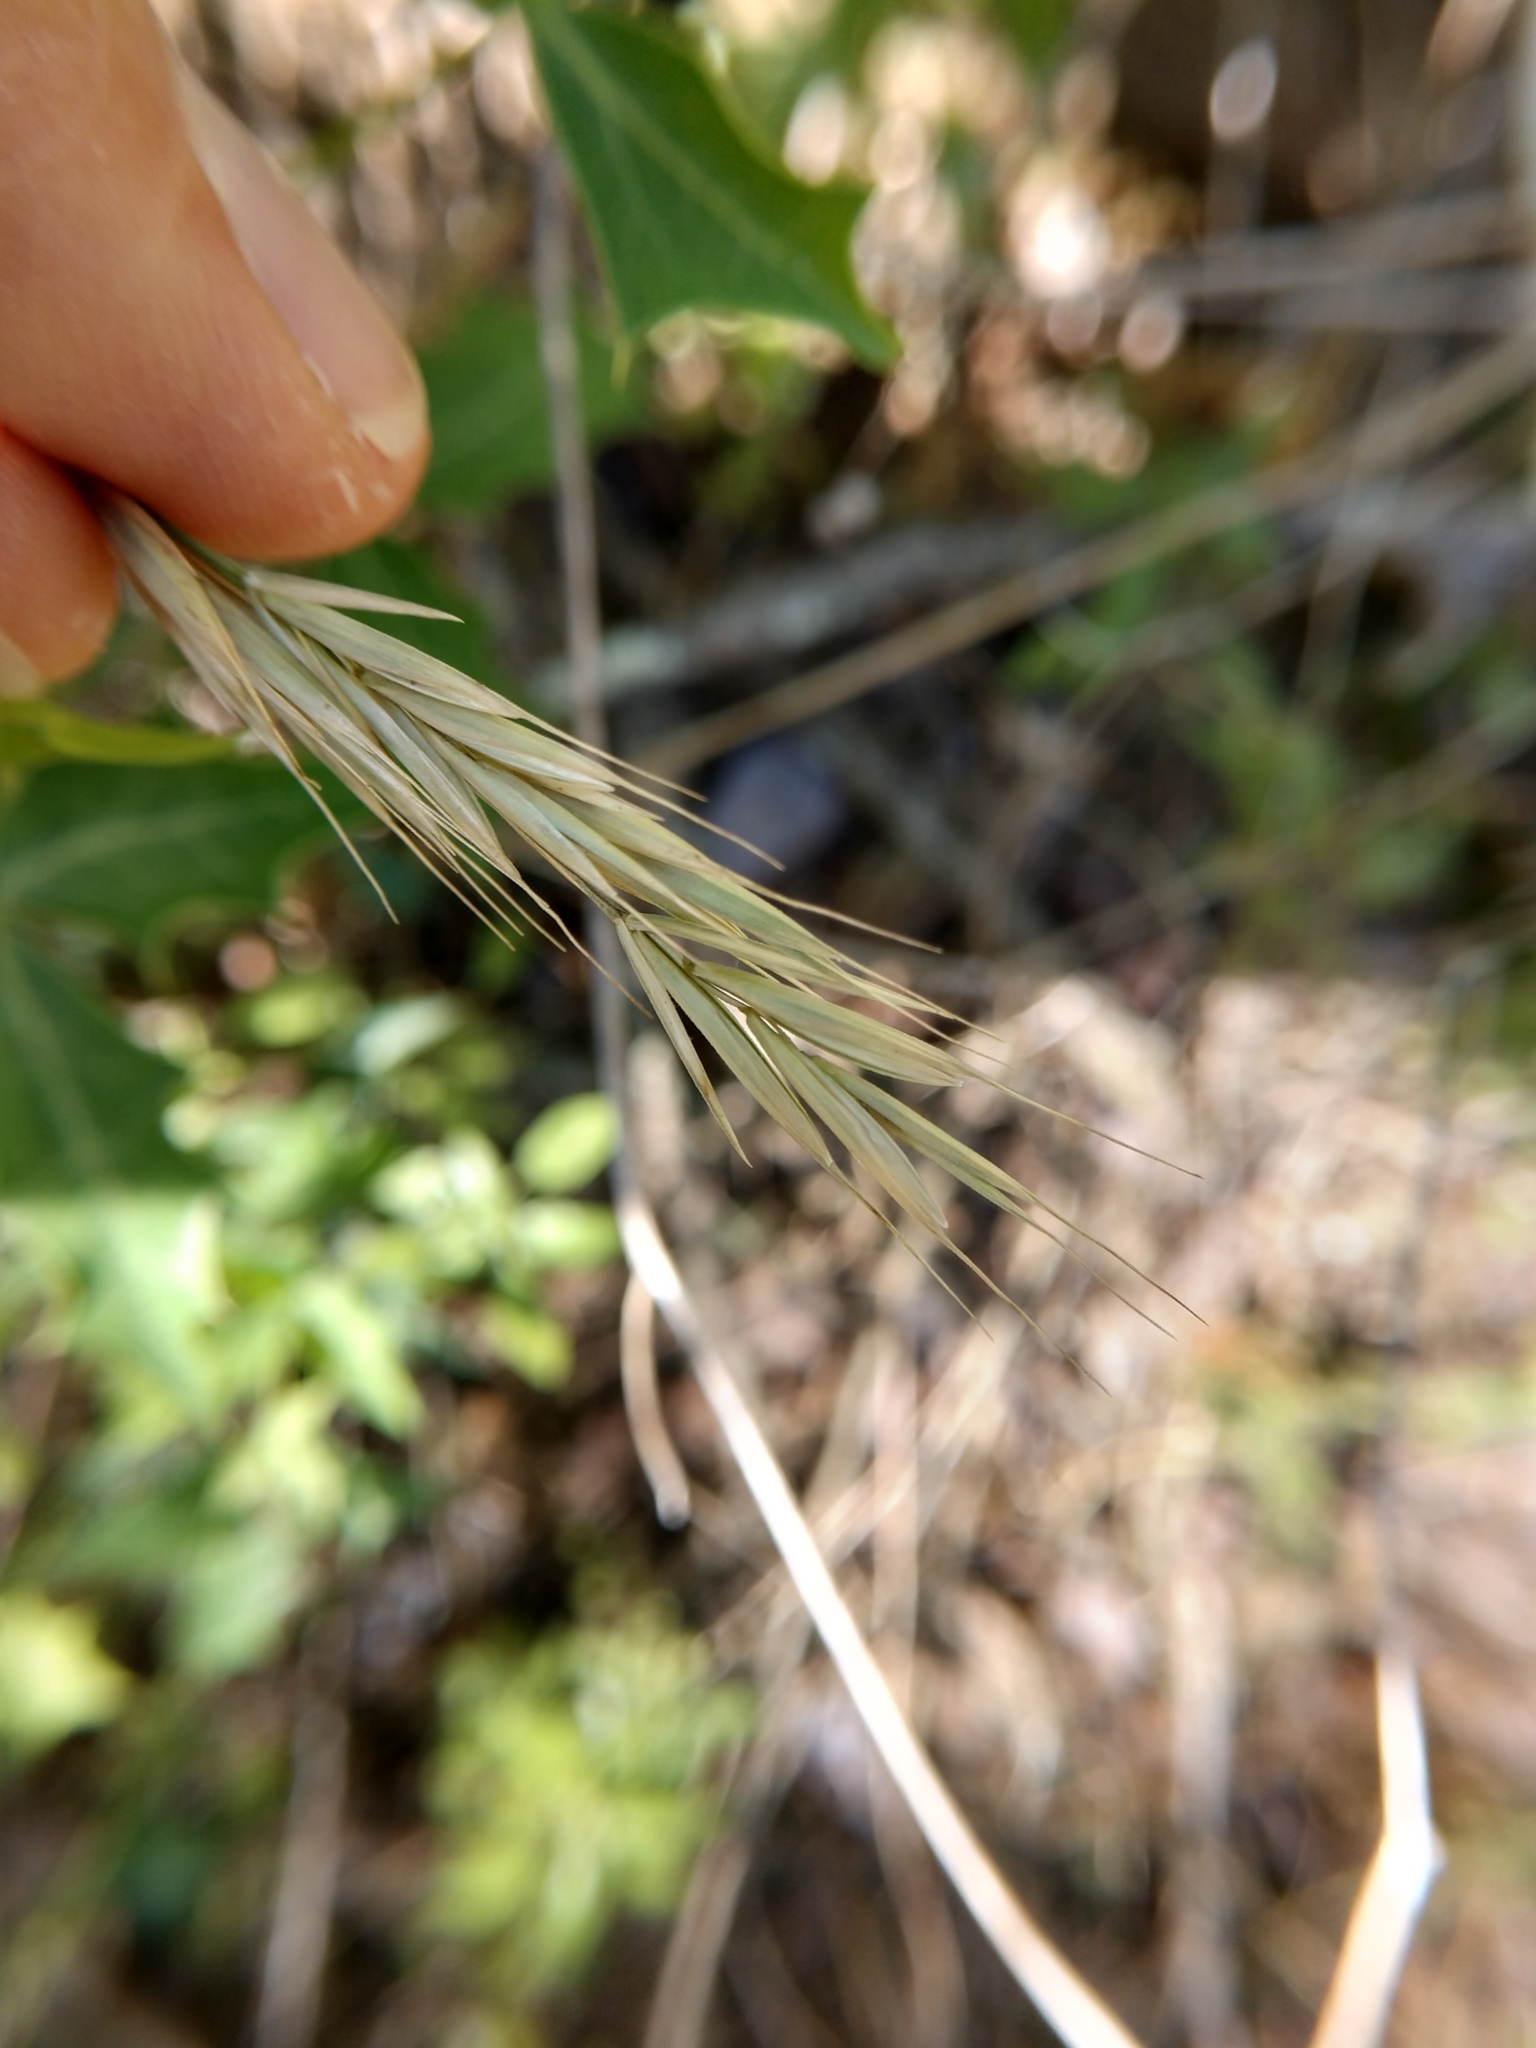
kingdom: Plantae
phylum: Tracheophyta
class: Liliopsida
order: Poales
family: Poaceae
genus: Bromus
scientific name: Bromus texensis
